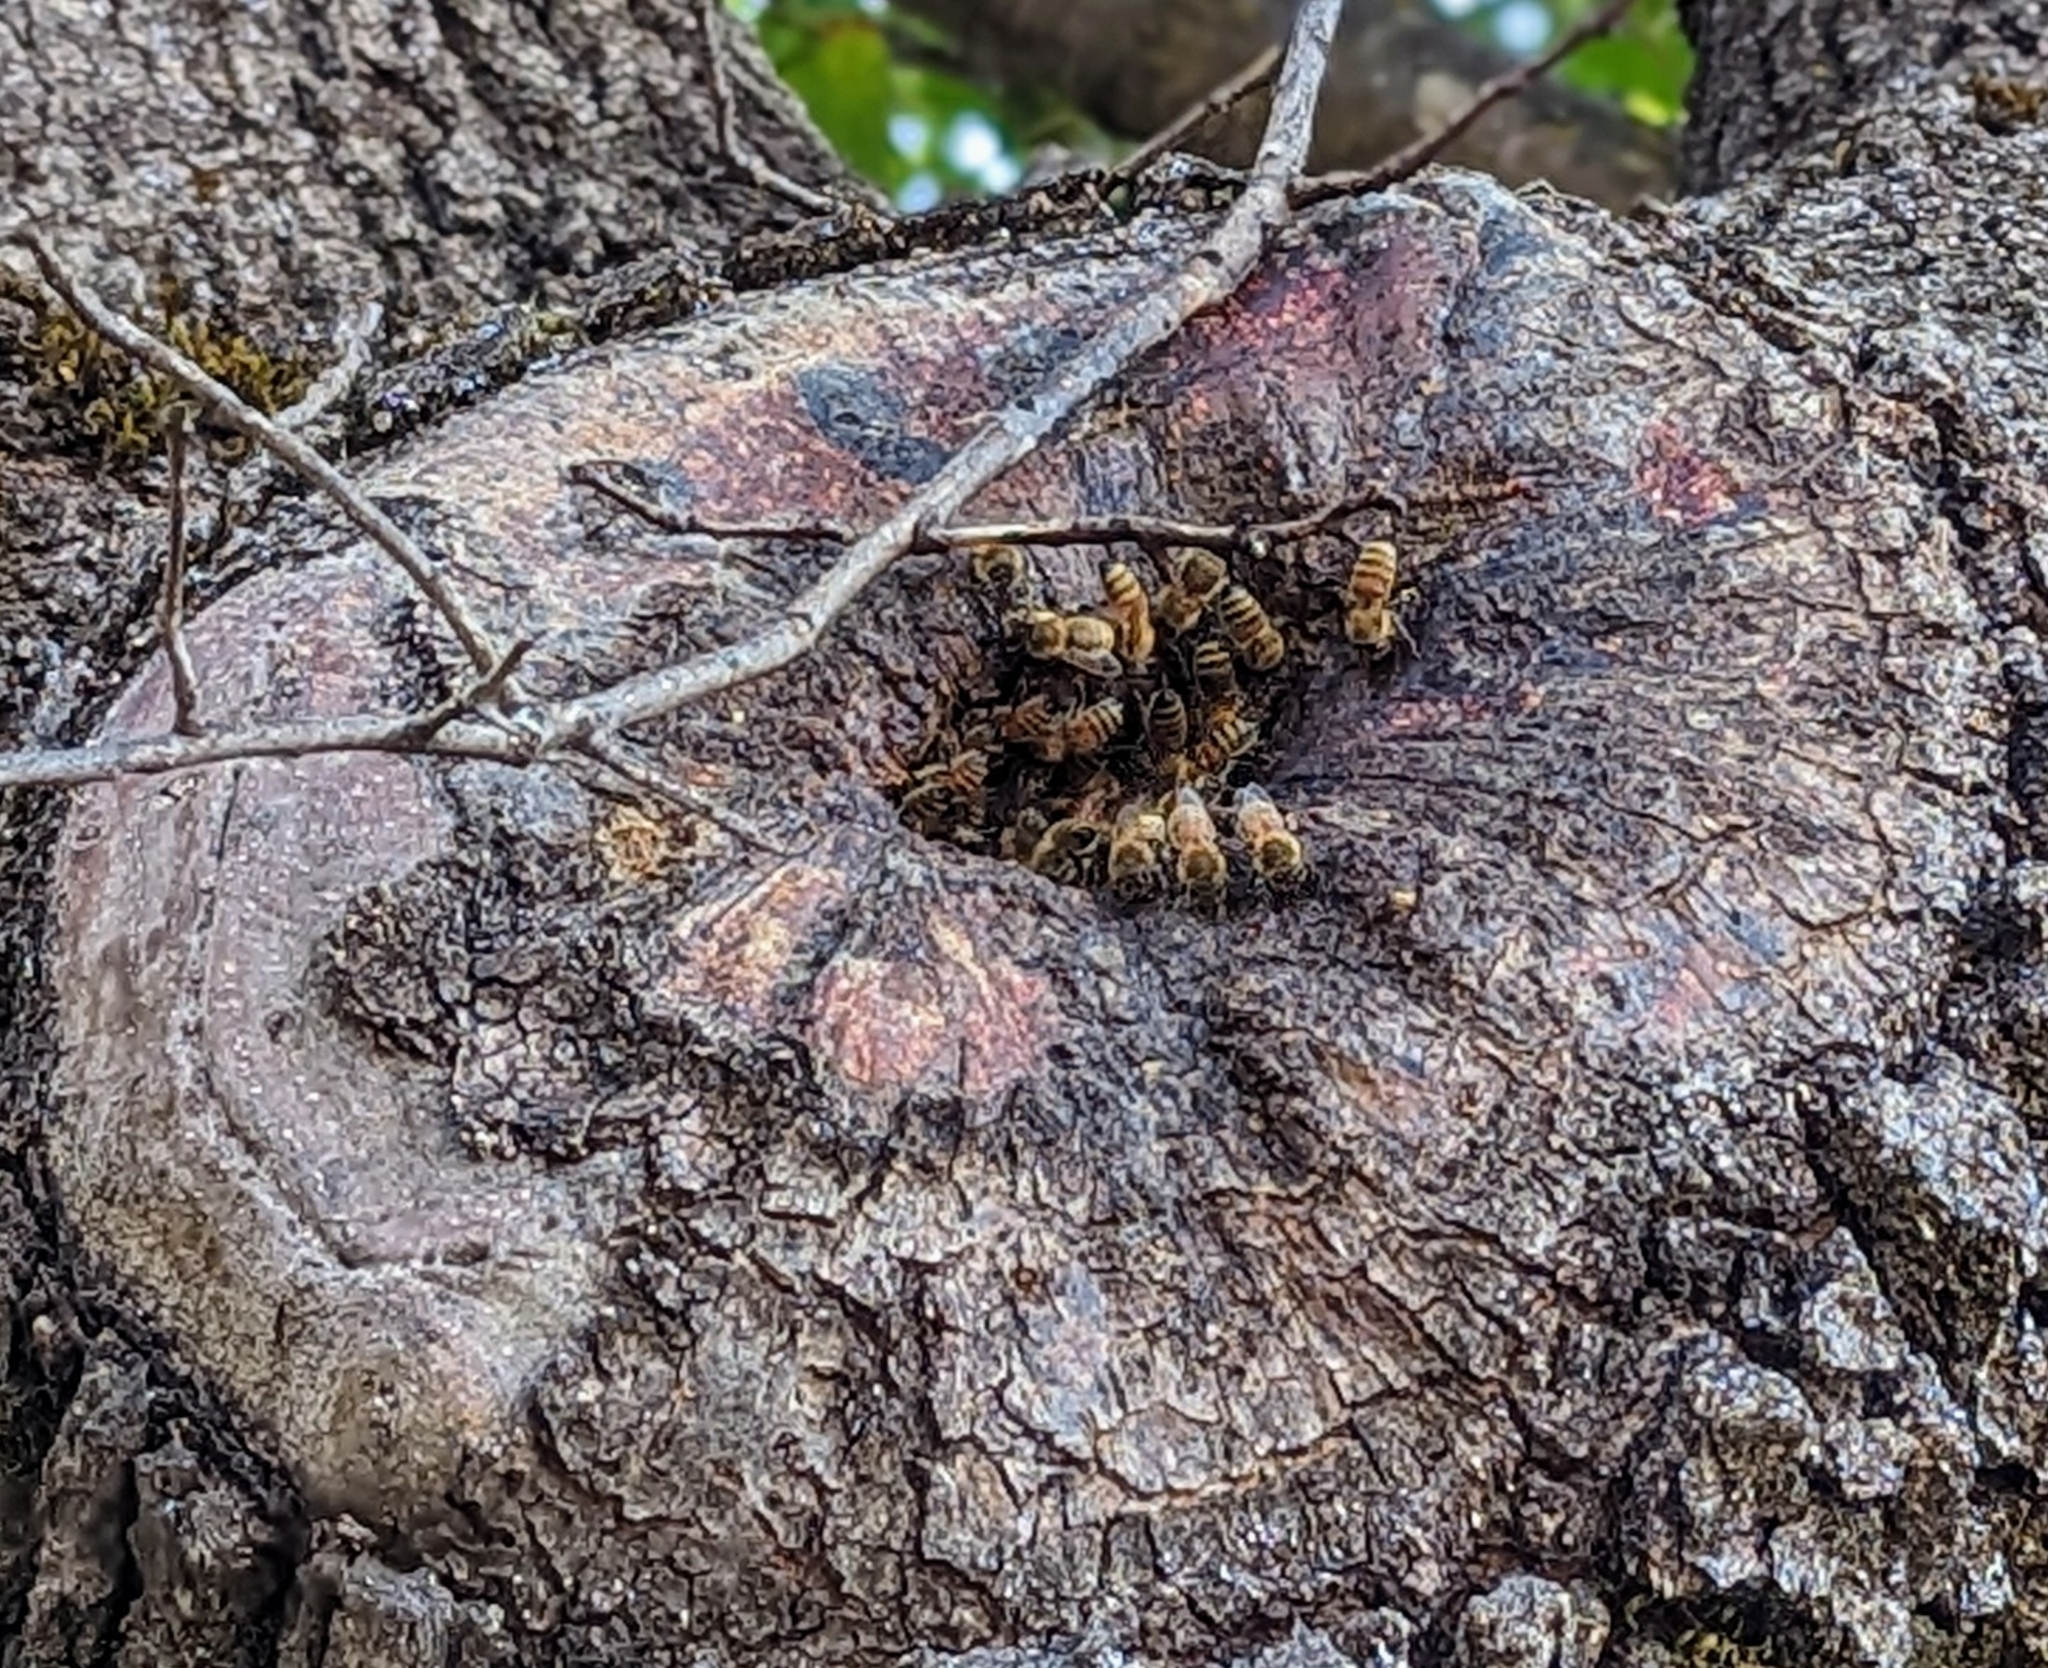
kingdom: Animalia
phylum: Arthropoda
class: Insecta
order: Hymenoptera
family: Apidae
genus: Apis
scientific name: Apis mellifera
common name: Honey bee
